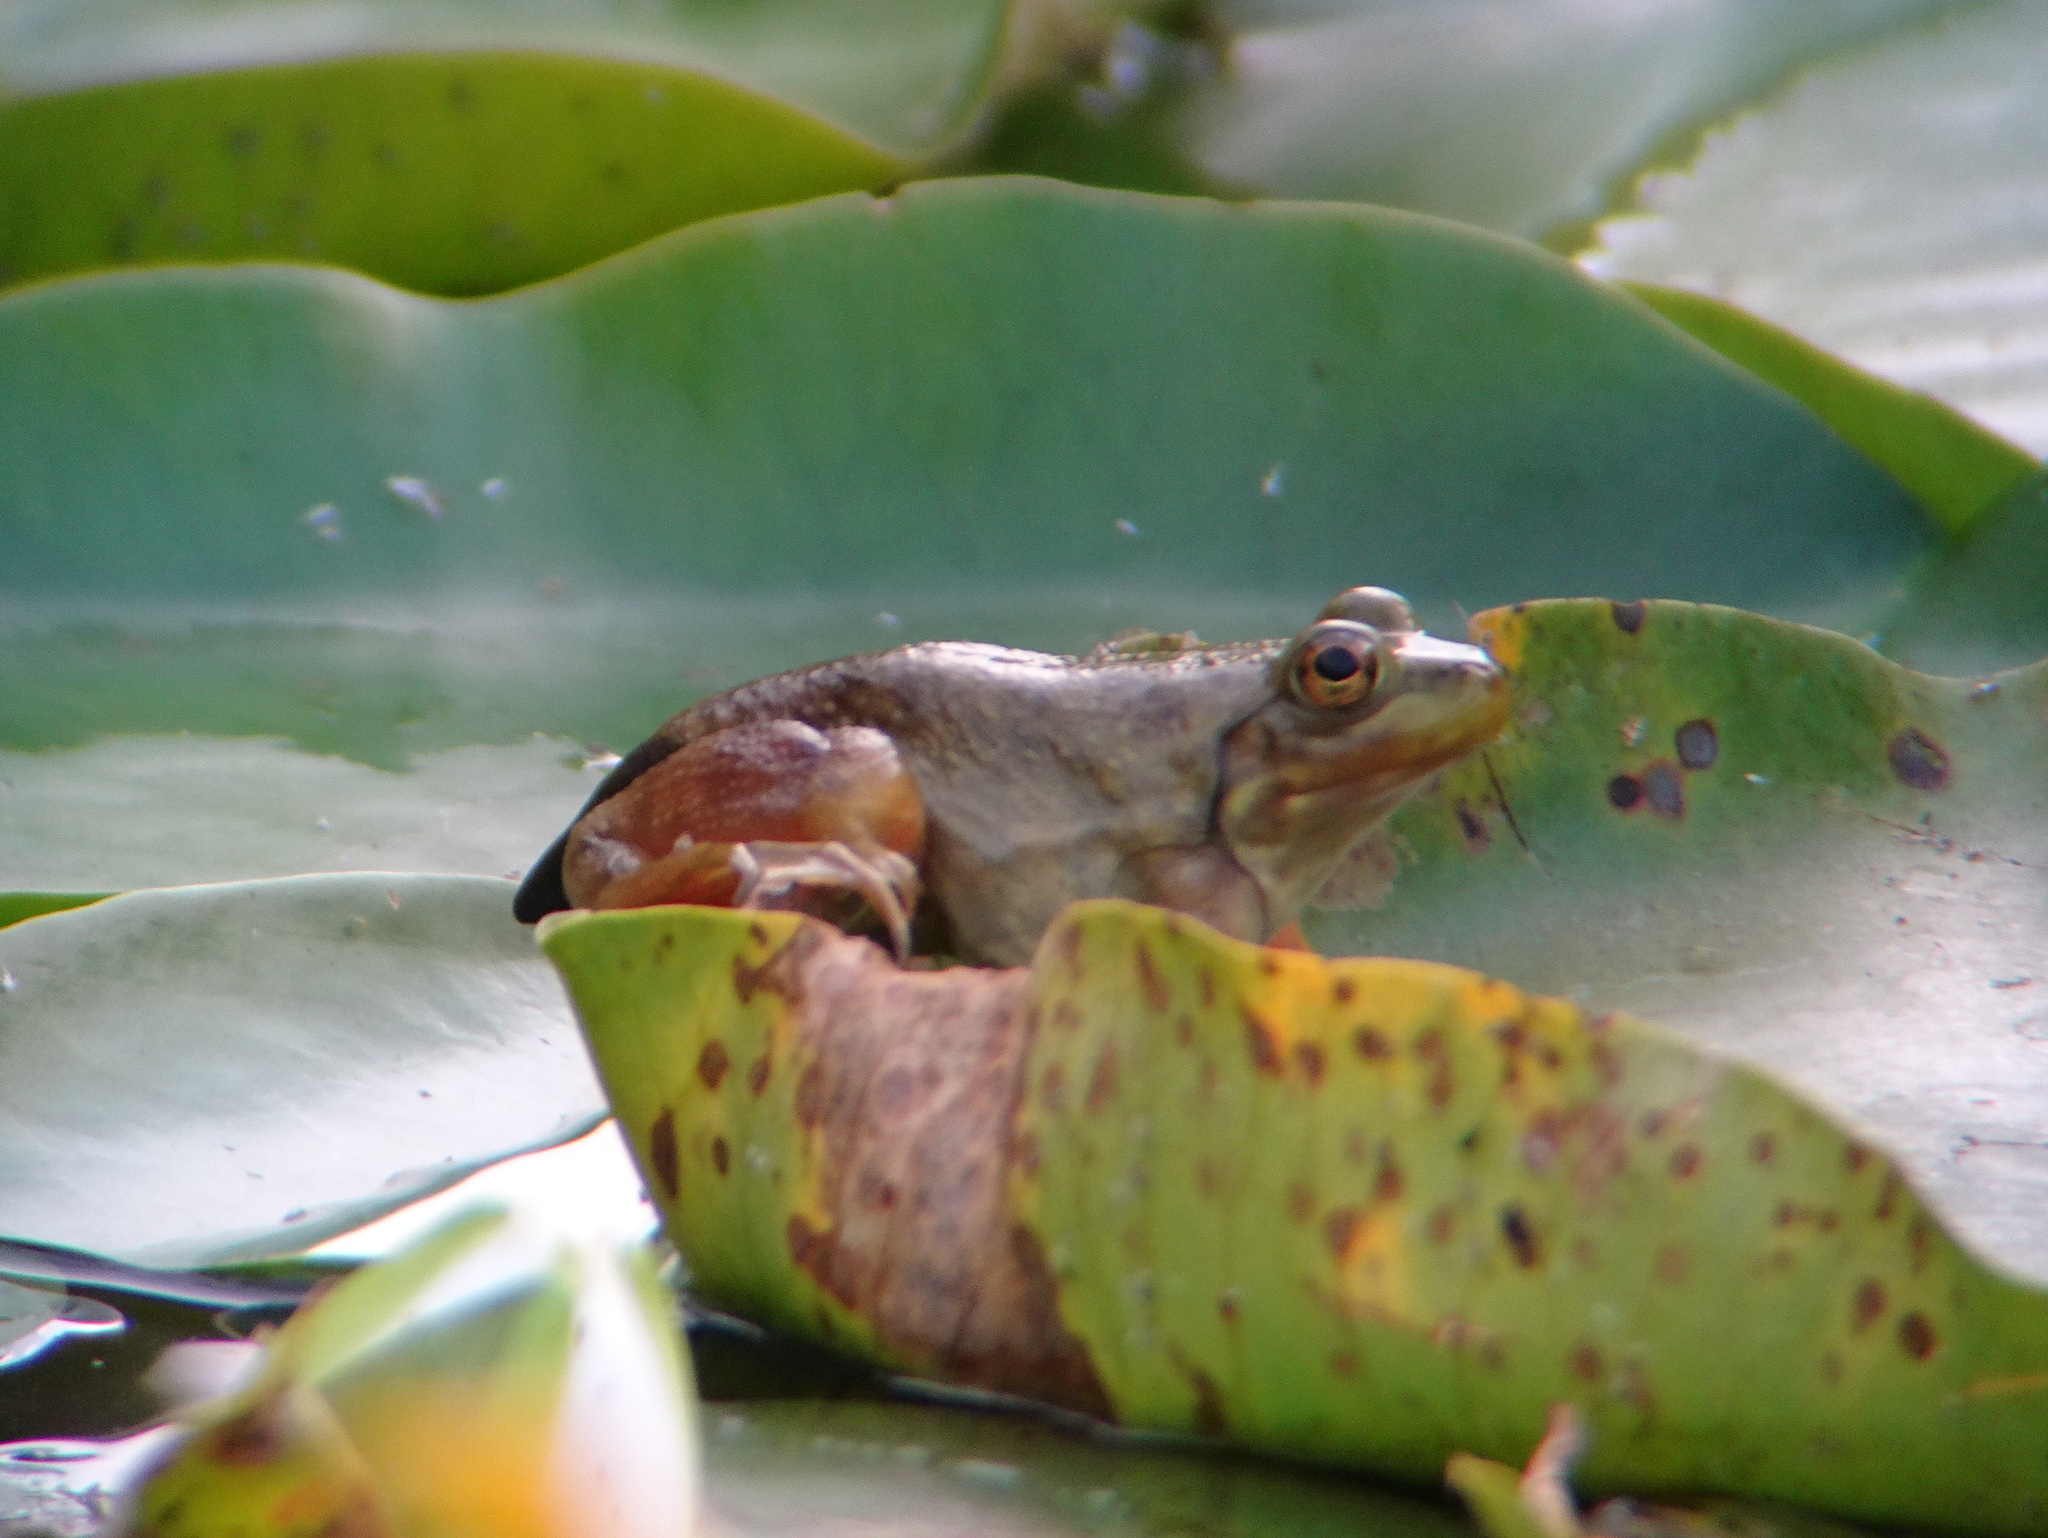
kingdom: Animalia
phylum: Chordata
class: Amphibia
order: Anura
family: Ranidae
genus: Lithobates
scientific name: Lithobates catesbeianus
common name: American bullfrog
